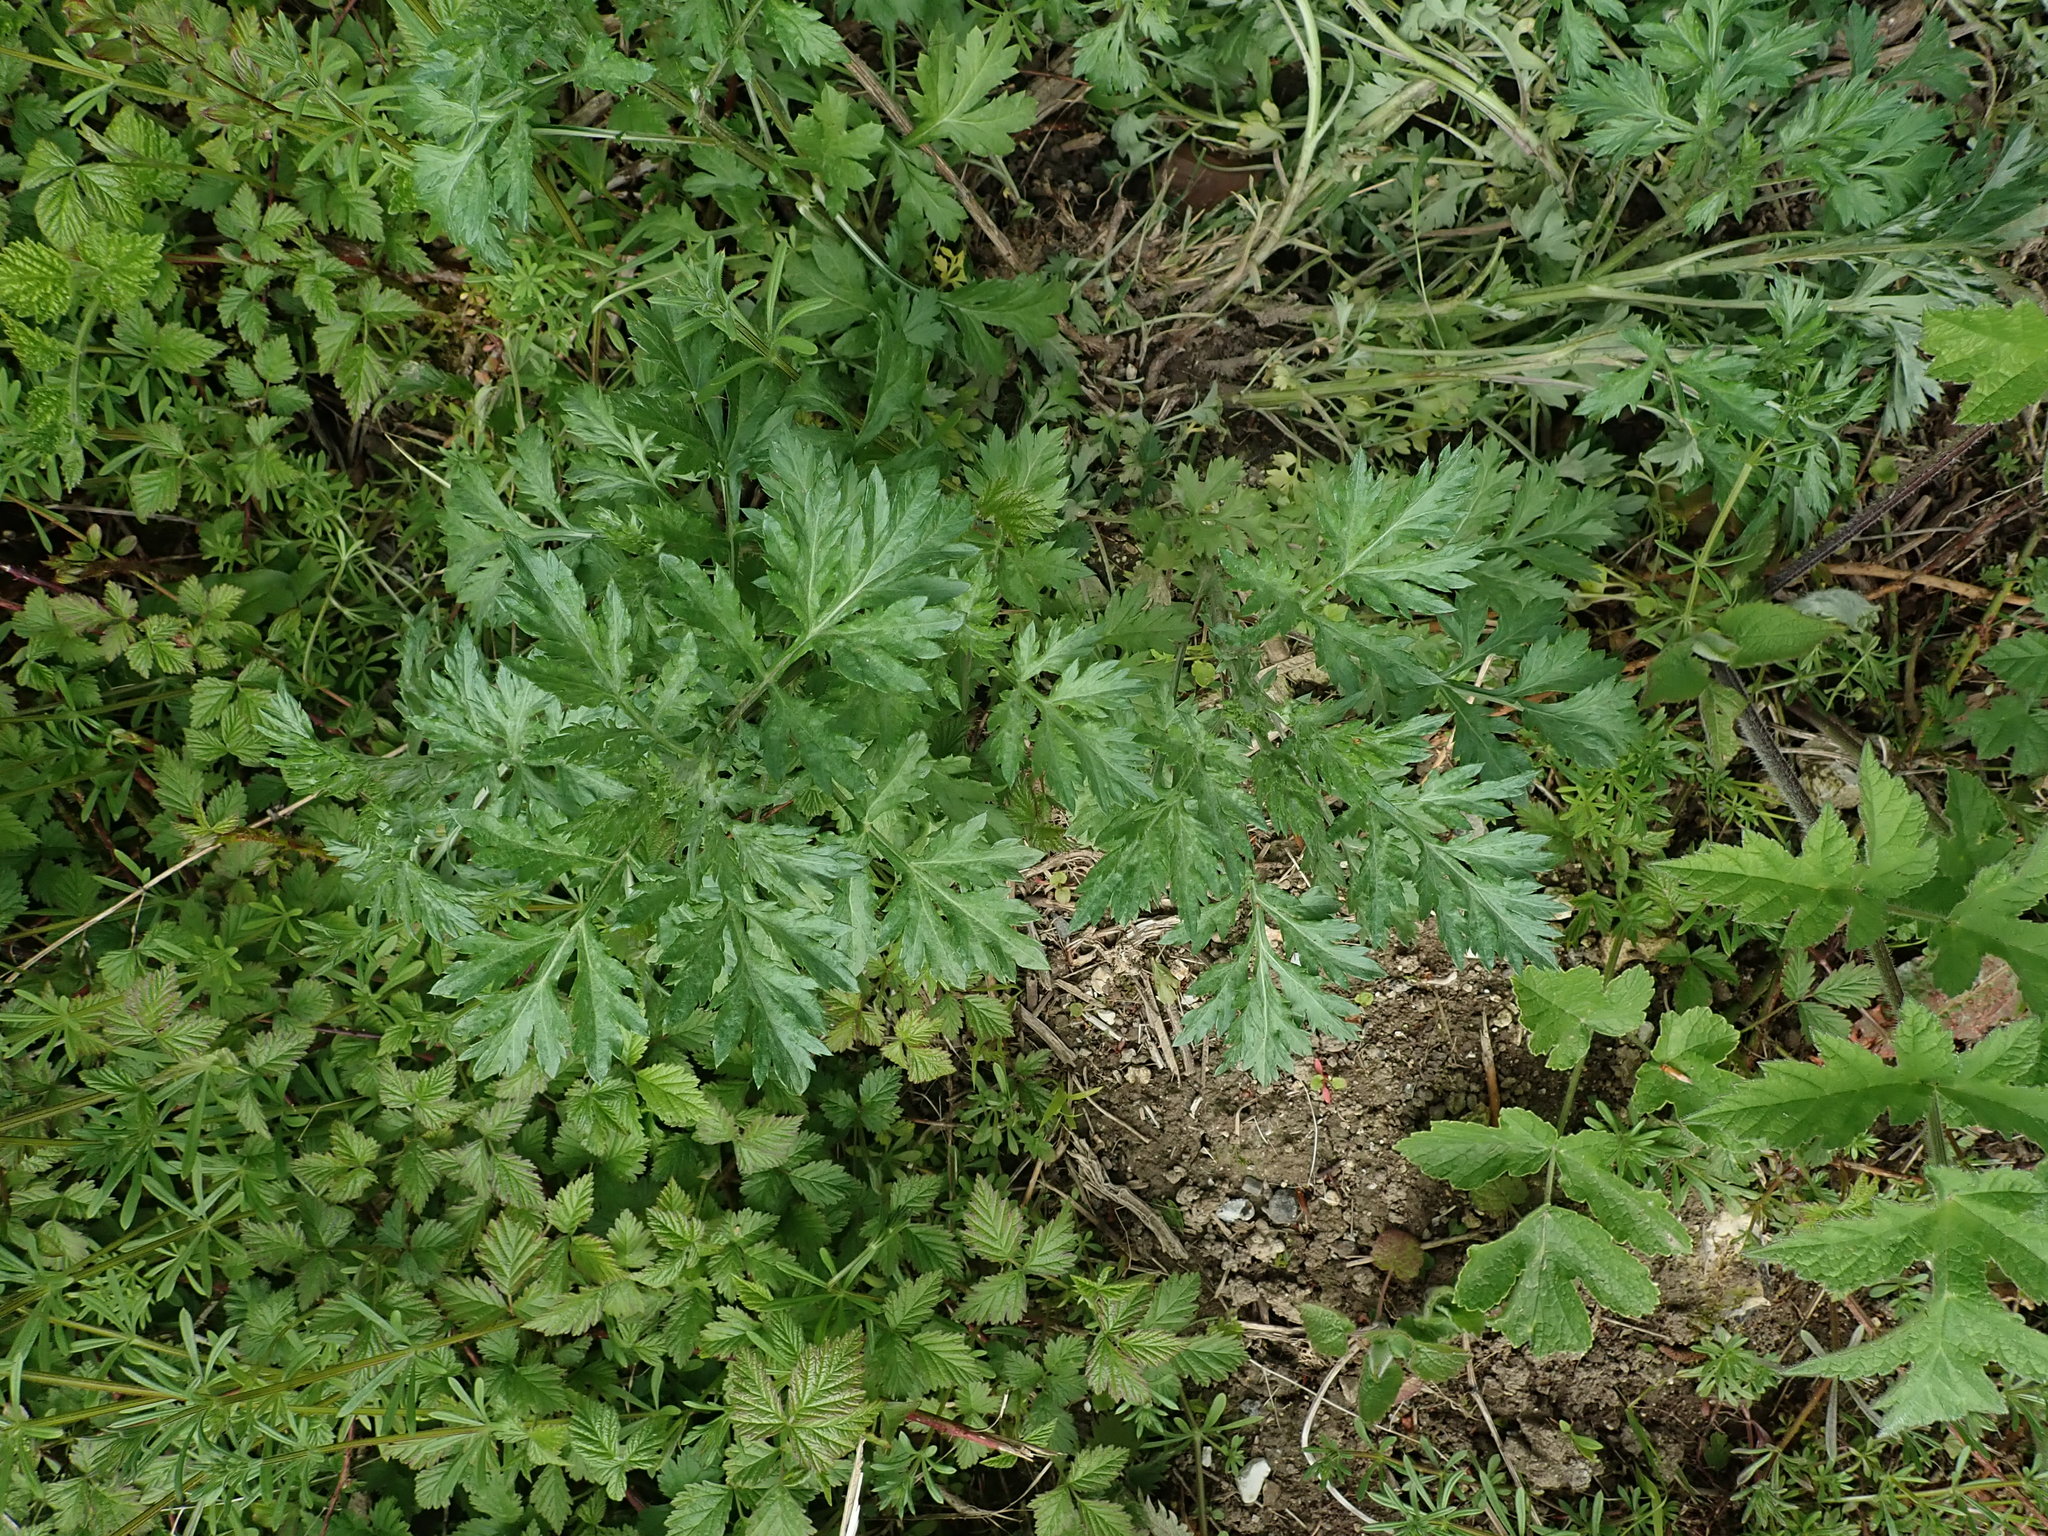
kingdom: Plantae
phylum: Tracheophyta
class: Magnoliopsida
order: Asterales
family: Asteraceae
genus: Artemisia
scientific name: Artemisia vulgaris
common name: Mugwort
